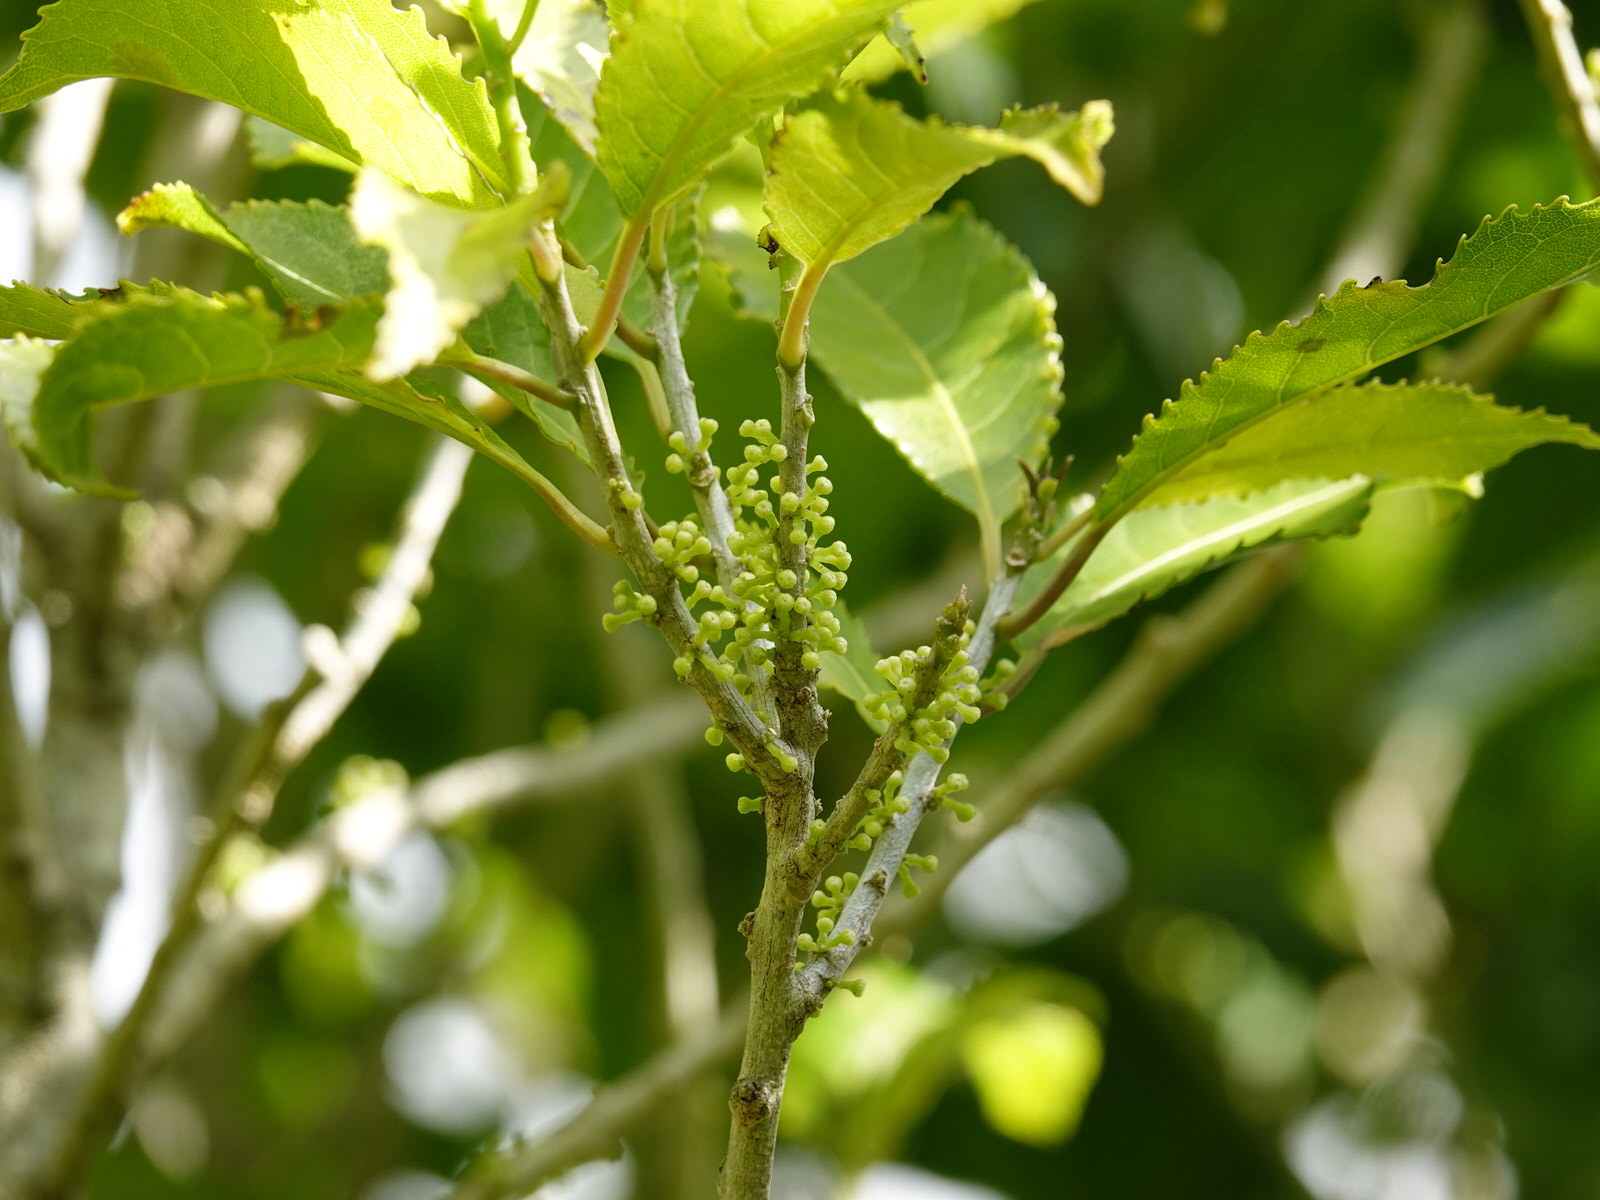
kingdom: Plantae
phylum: Tracheophyta
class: Magnoliopsida
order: Malpighiales
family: Violaceae
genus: Melicytus
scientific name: Melicytus ramiflorus
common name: Mahoe
